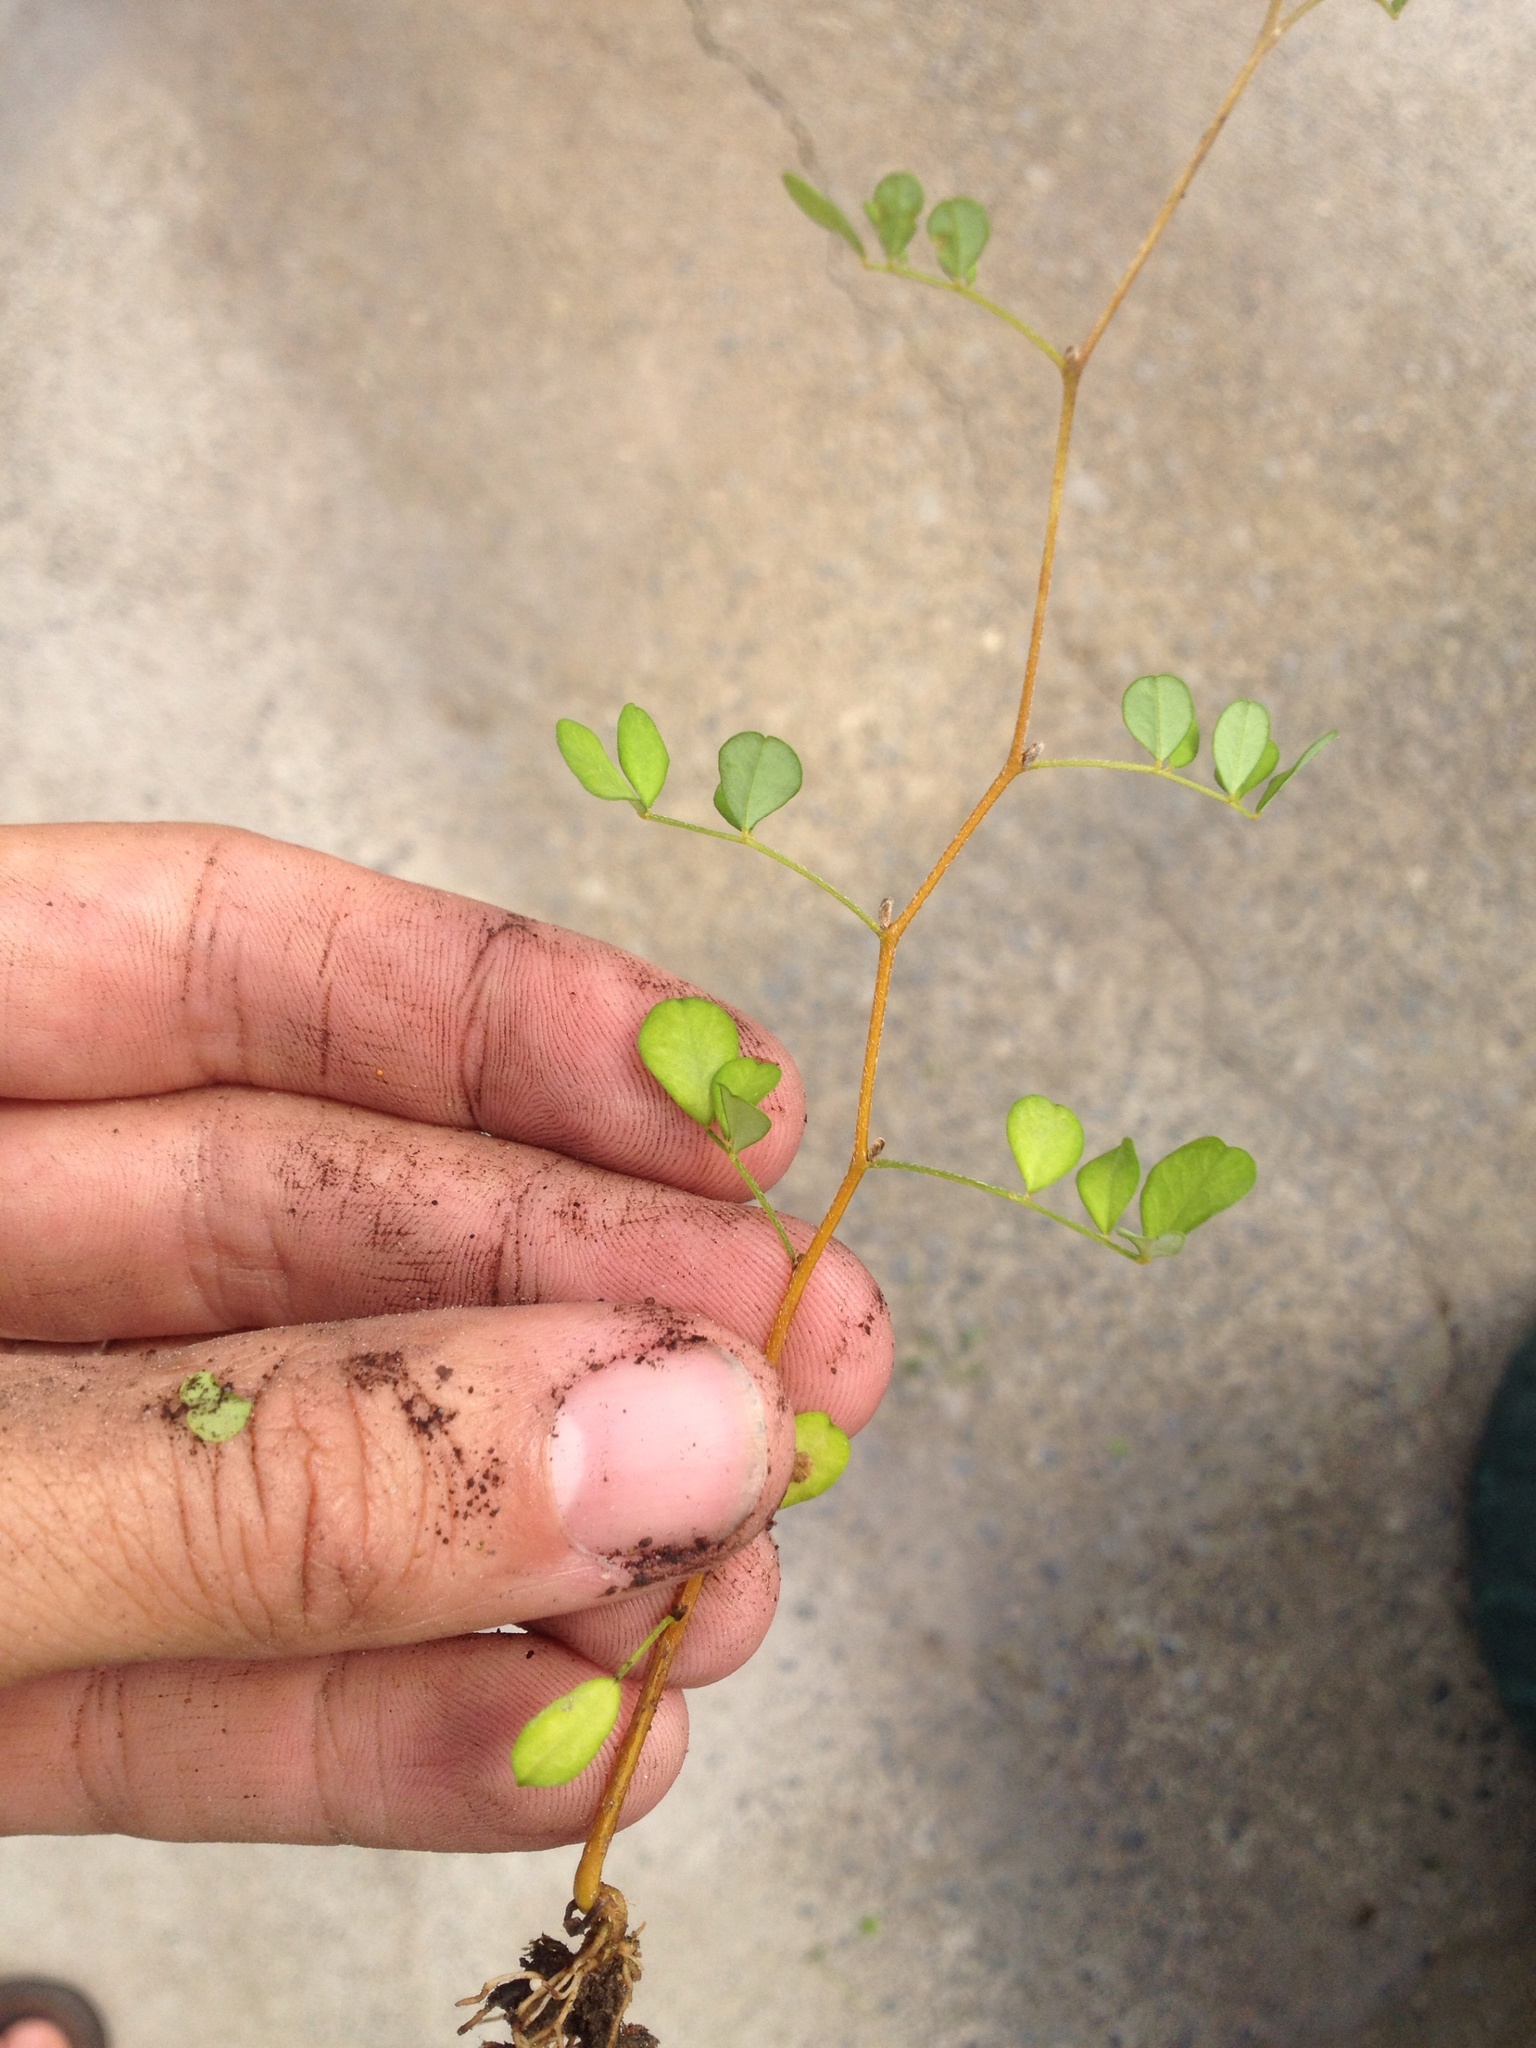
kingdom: Plantae
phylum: Tracheophyta
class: Magnoliopsida
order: Fabales
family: Fabaceae
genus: Sophora
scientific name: Sophora microphylla
